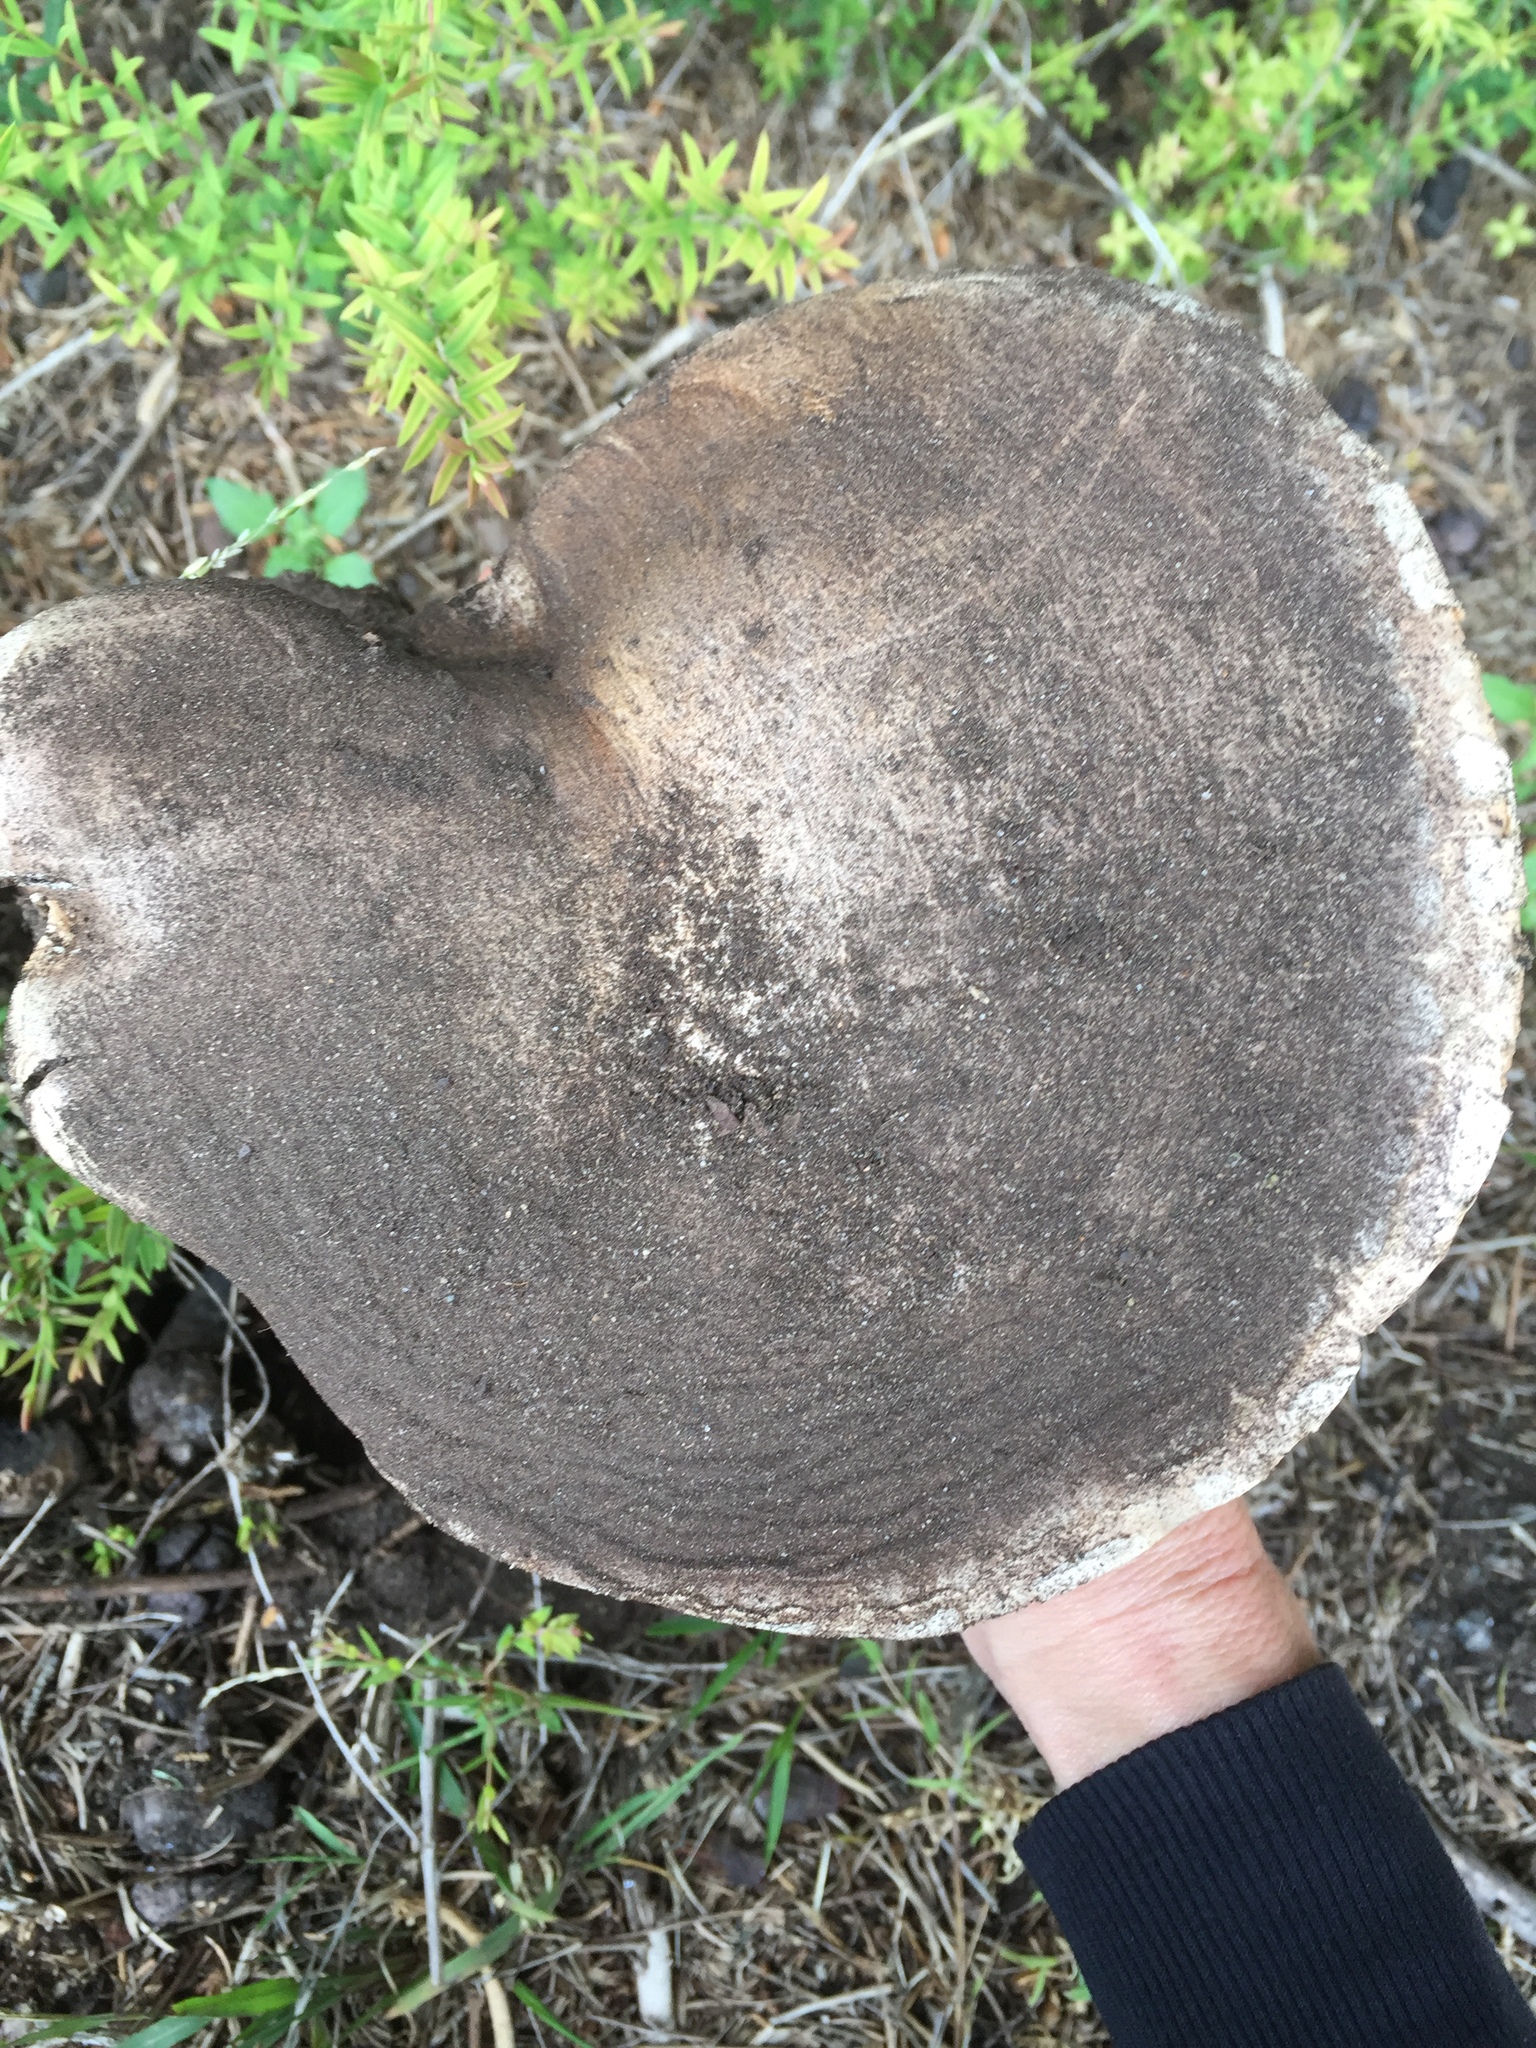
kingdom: Fungi
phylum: Basidiomycota
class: Agaricomycetes
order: Agaricales
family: Agaricaceae
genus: Agaricus
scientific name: Agaricus bitorquis
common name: Pavement mushroom
